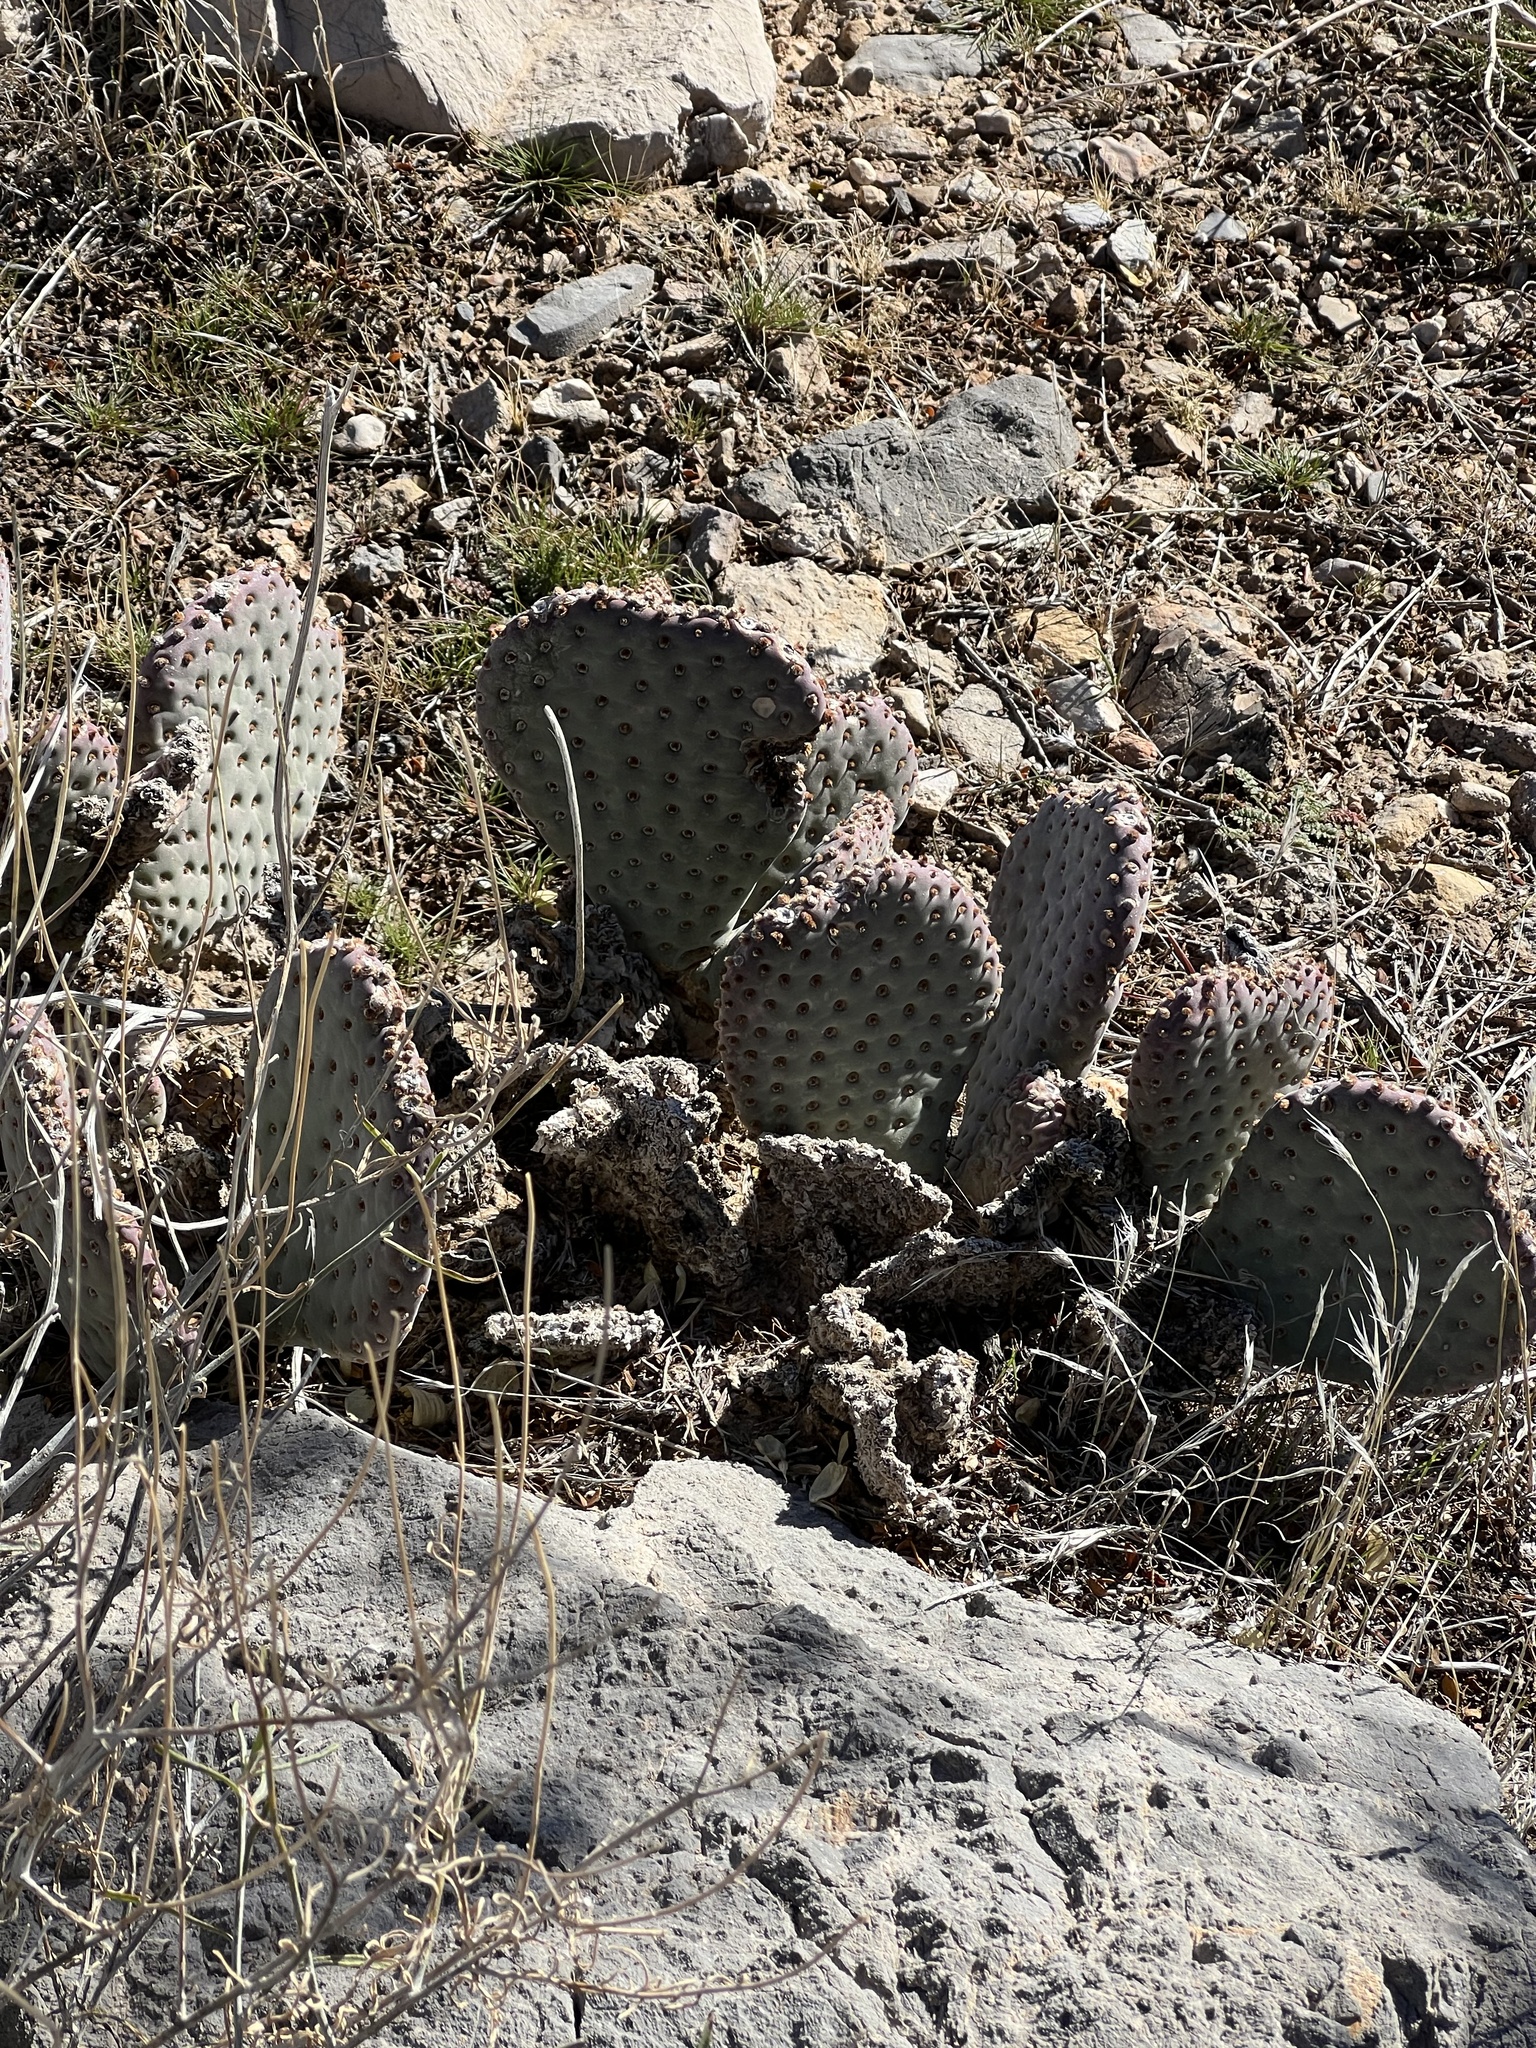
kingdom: Plantae
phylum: Tracheophyta
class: Magnoliopsida
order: Caryophyllales
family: Cactaceae
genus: Opuntia
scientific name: Opuntia basilaris
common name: Beavertail prickly-pear
